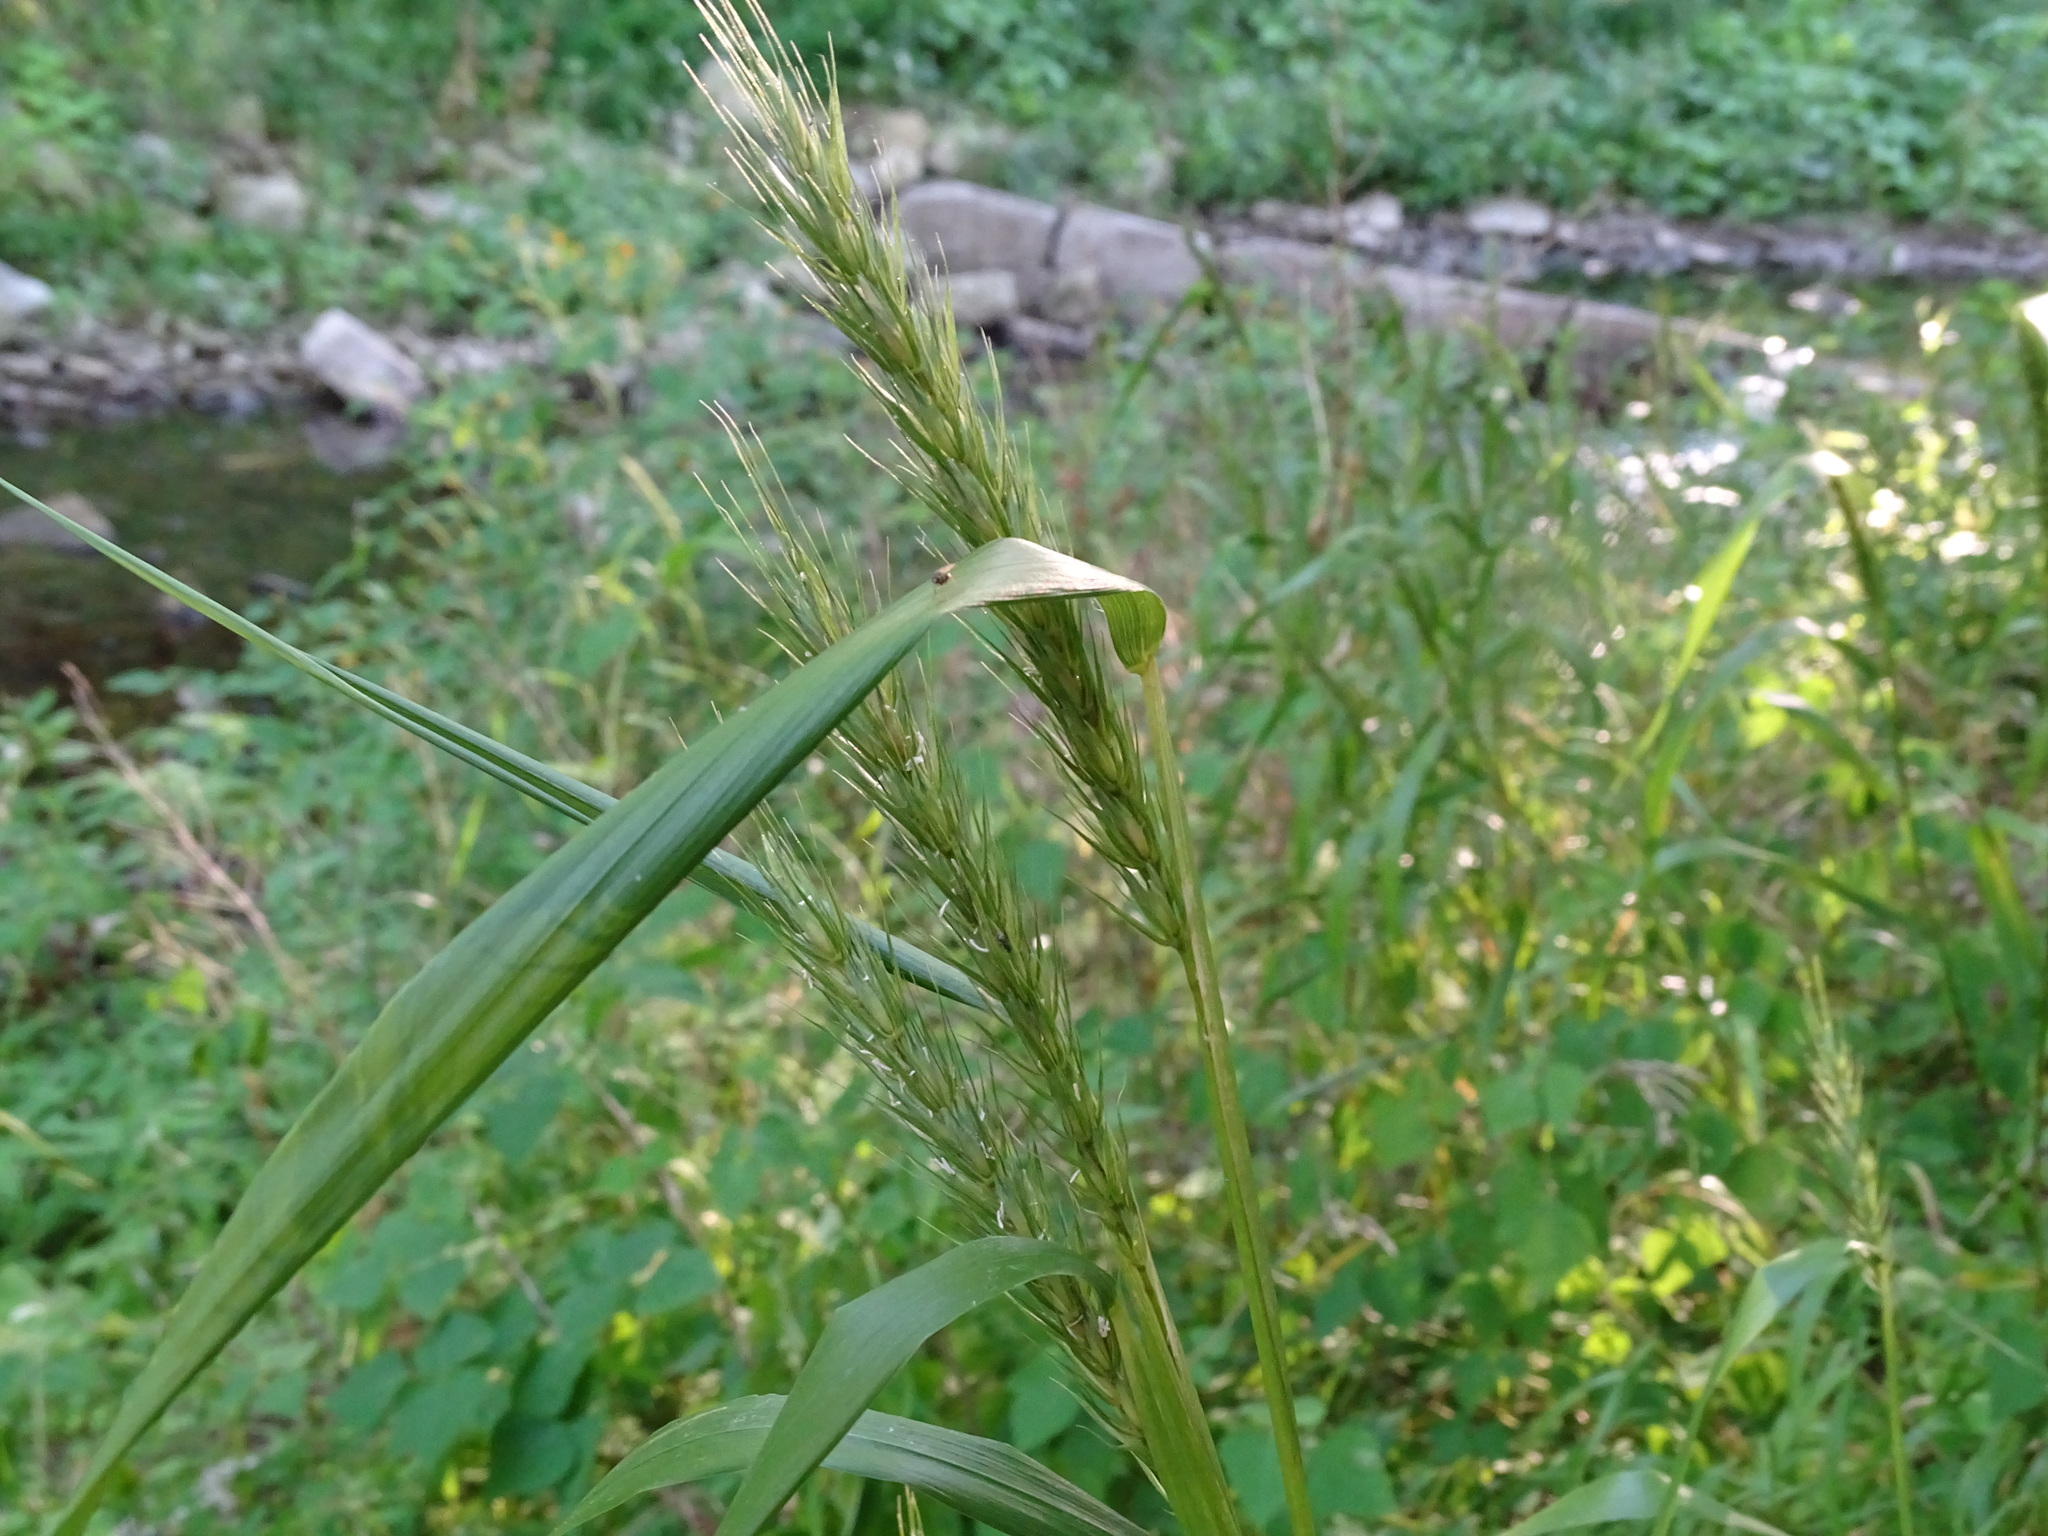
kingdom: Plantae
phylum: Tracheophyta
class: Liliopsida
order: Poales
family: Poaceae
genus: Elymus
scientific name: Elymus virginicus
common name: Common eastern wildrye
